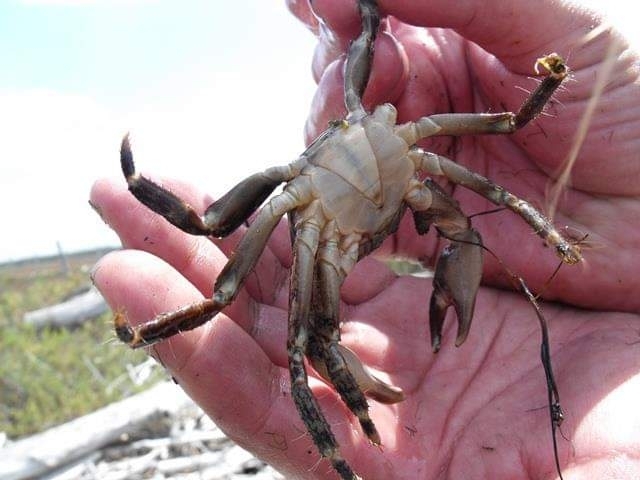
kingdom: Animalia
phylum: Arthropoda
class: Malacostraca
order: Decapoda
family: Grapsidae
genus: Pachygrapsus
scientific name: Pachygrapsus marmoratus
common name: Marbled rock crab
